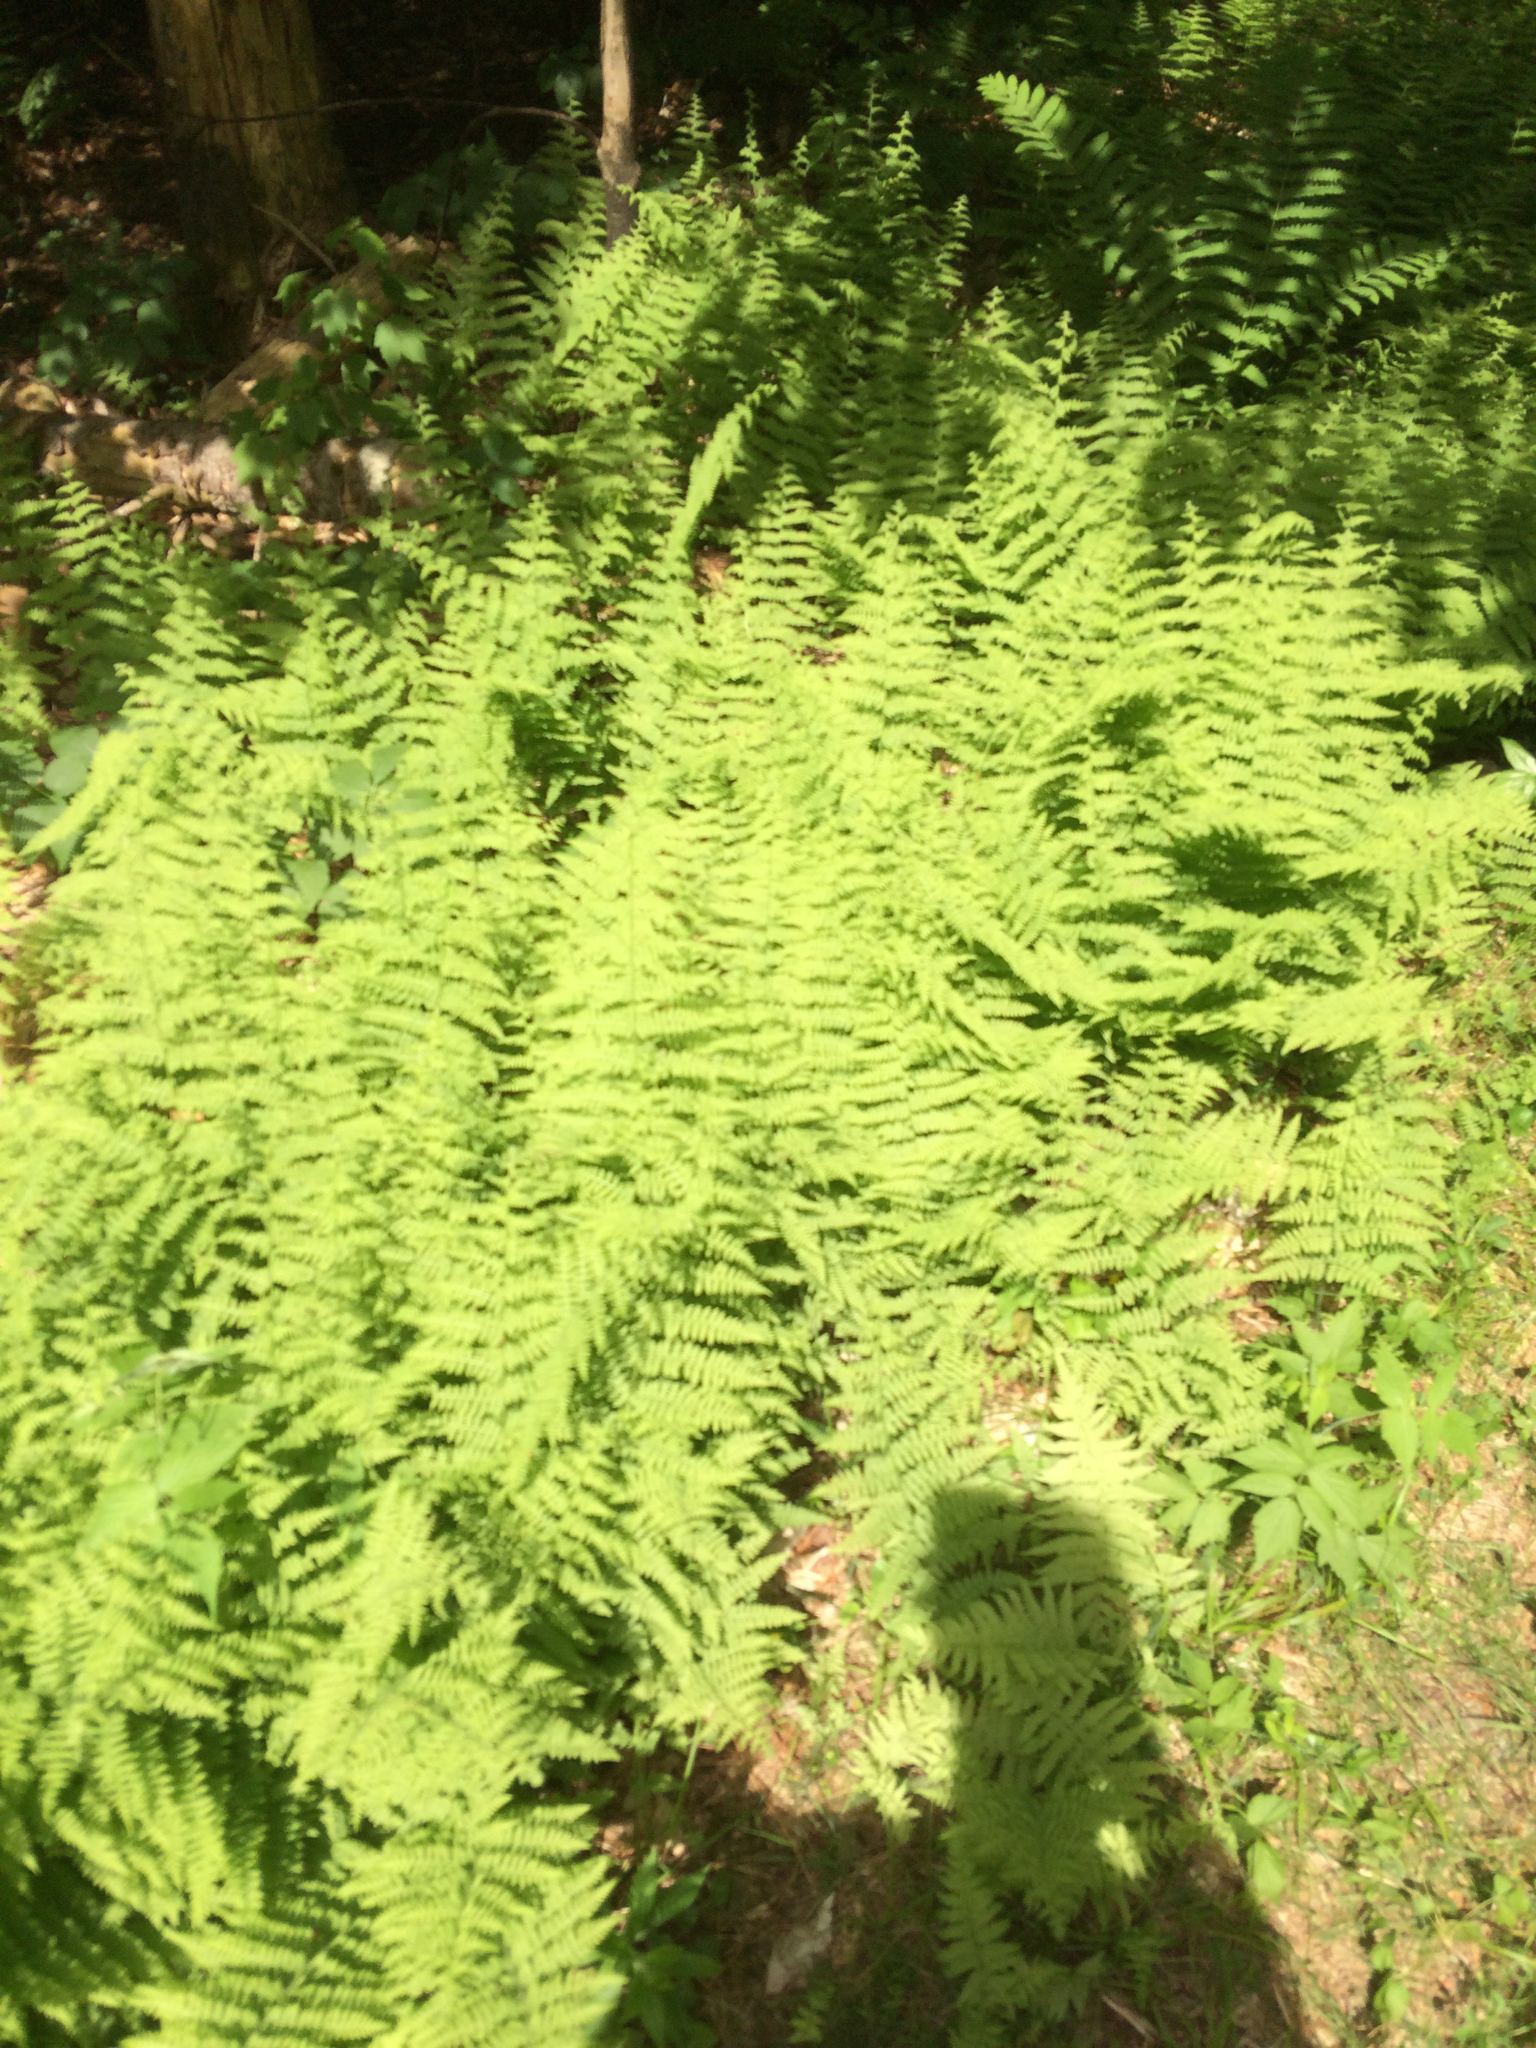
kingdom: Plantae
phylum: Tracheophyta
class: Polypodiopsida
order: Polypodiales
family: Dennstaedtiaceae
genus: Sitobolium
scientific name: Sitobolium punctilobum
